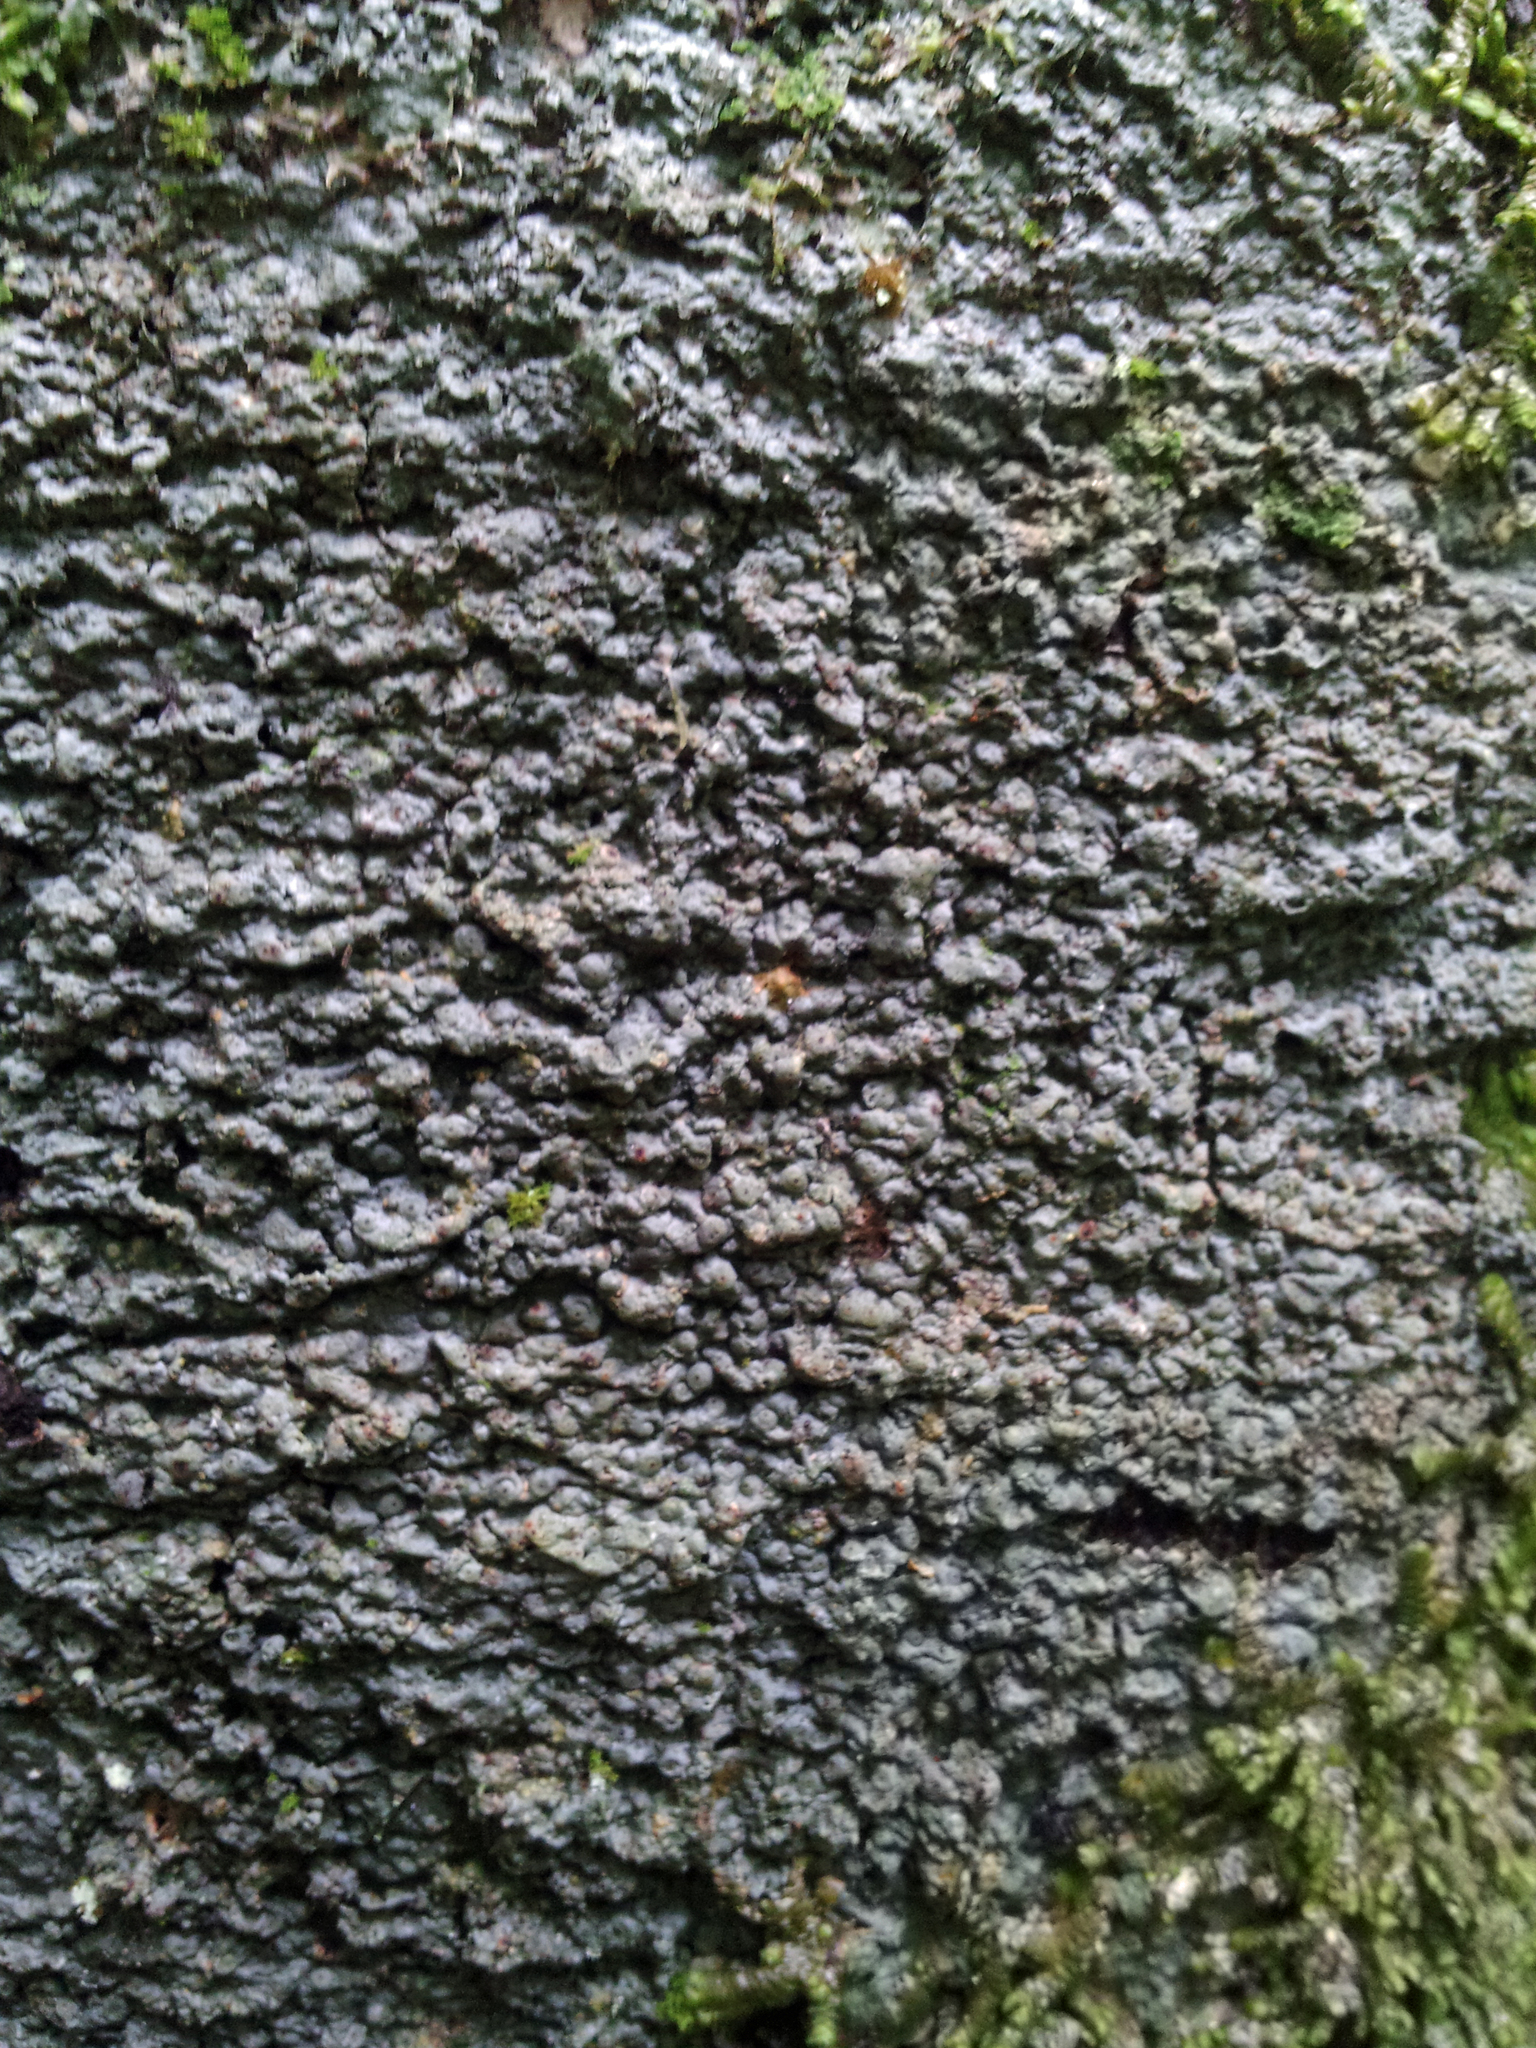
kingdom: Fungi
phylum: Ascomycota
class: Lecanoromycetes
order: Pertusariales
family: Pertusariaceae
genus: Porina
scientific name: Porina exocha
